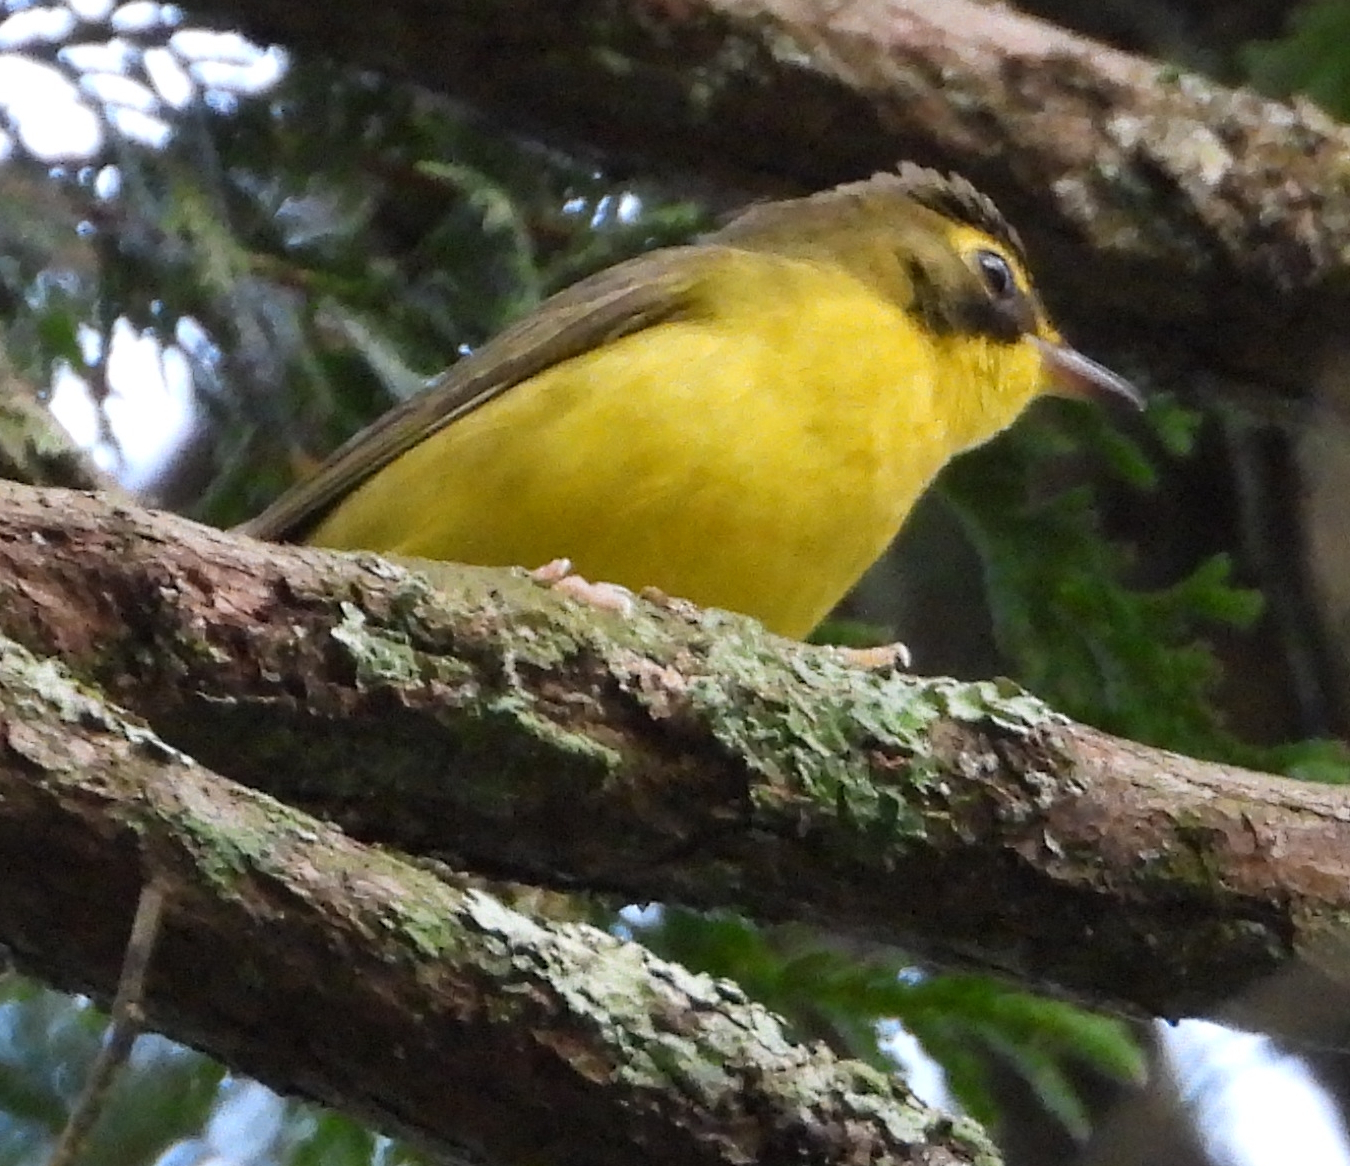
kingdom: Animalia
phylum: Chordata
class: Aves
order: Passeriformes
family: Parulidae
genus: Geothlypis
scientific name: Geothlypis formosa
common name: Kentucky warbler
